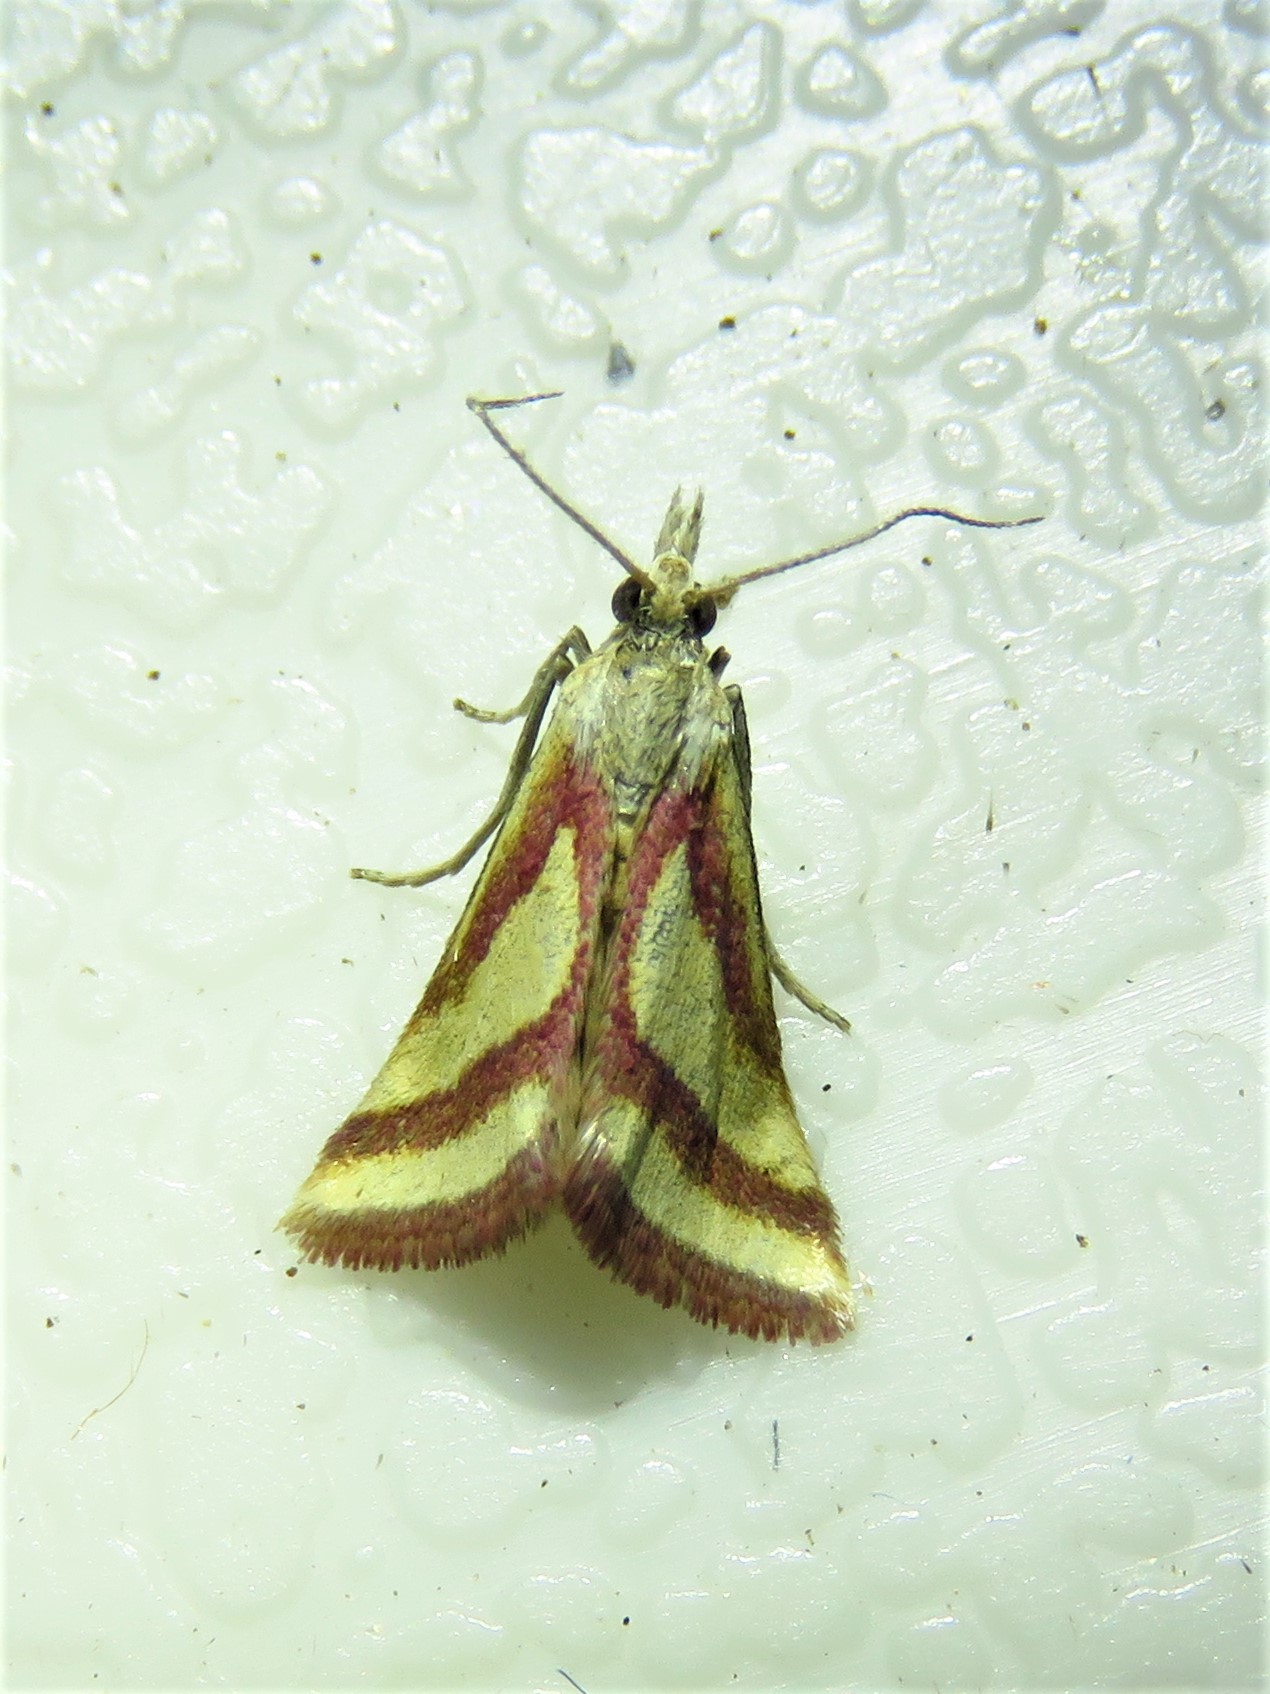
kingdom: Animalia
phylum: Arthropoda
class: Insecta
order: Lepidoptera
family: Crambidae
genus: Microtheoris
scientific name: Microtheoris vibicalis
